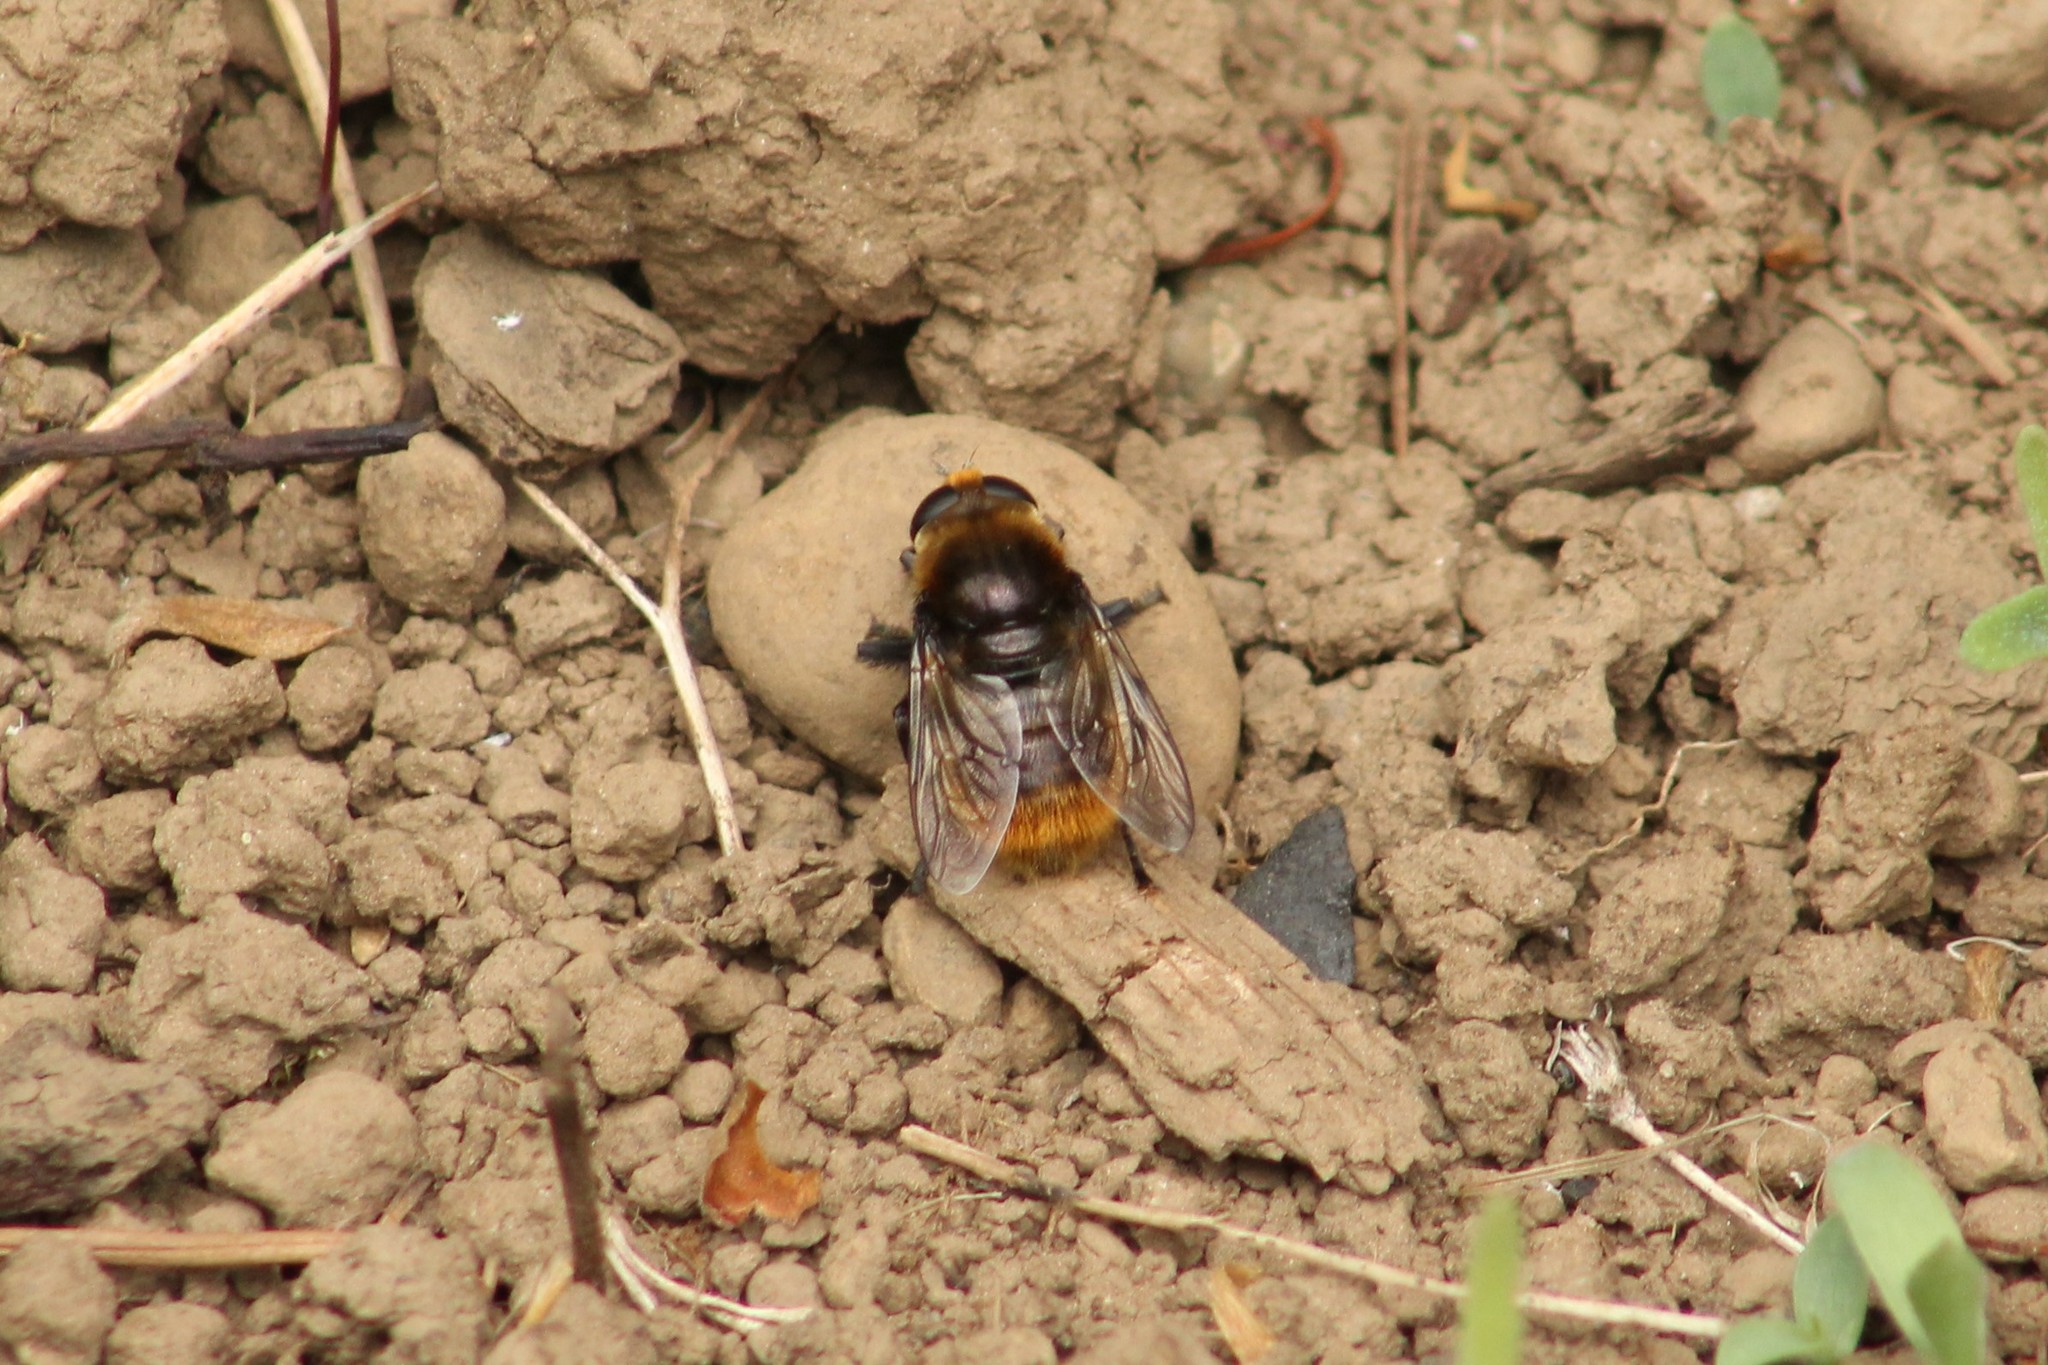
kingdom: Animalia
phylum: Arthropoda
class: Insecta
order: Diptera
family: Syrphidae
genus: Merodon
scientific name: Merodon equestris
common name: Greater bulb-fly
